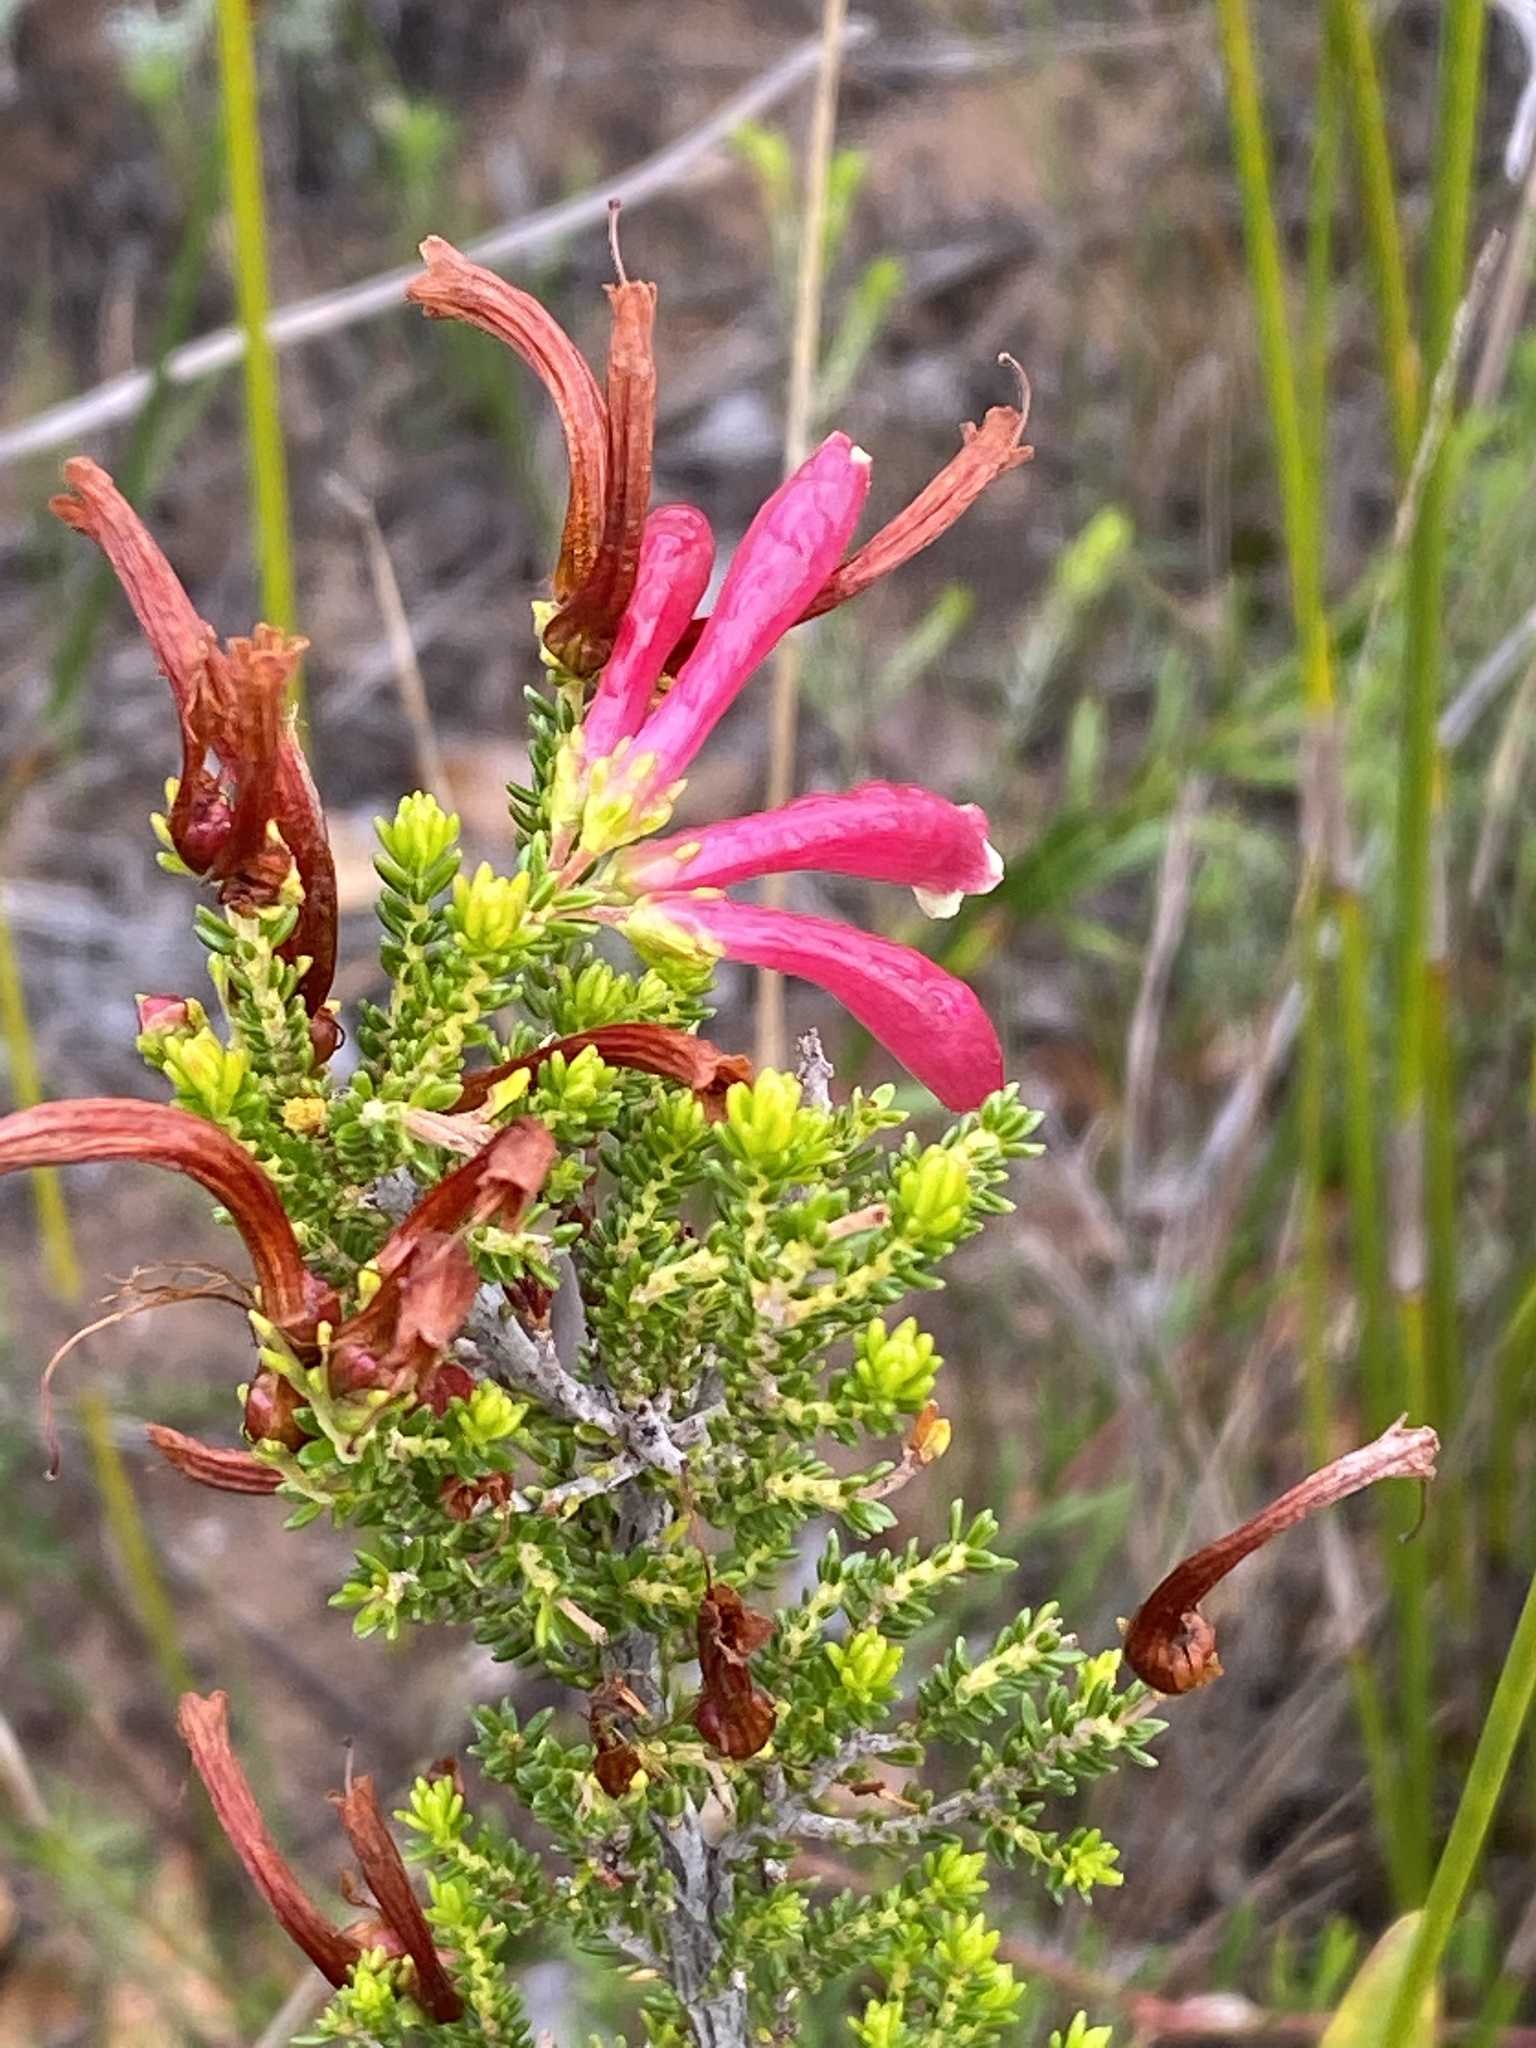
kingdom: Plantae
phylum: Tracheophyta
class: Magnoliopsida
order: Ericales
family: Ericaceae
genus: Erica
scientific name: Erica versicolor
